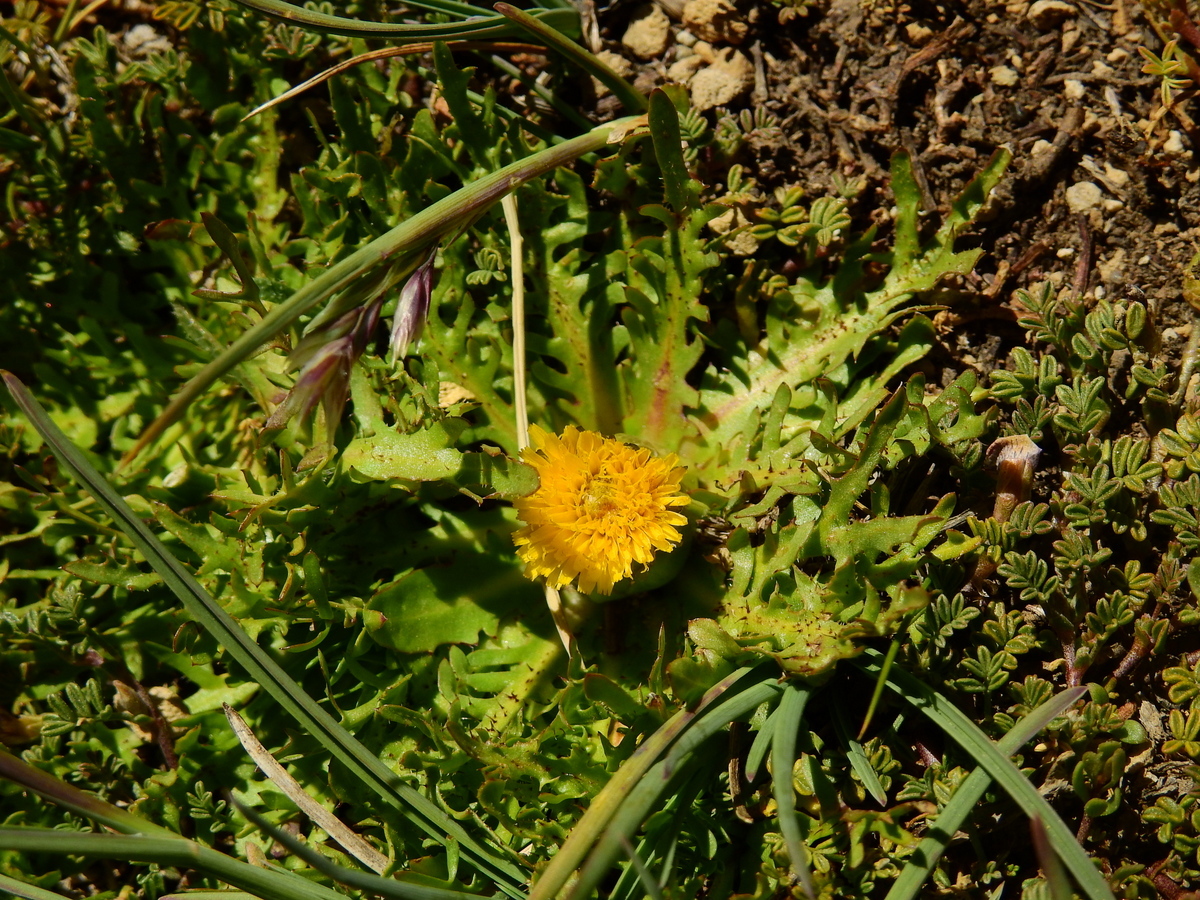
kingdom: Plantae
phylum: Tracheophyta
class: Magnoliopsida
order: Asterales
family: Asteraceae
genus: Hypochaeris
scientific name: Hypochaeris acaulis
